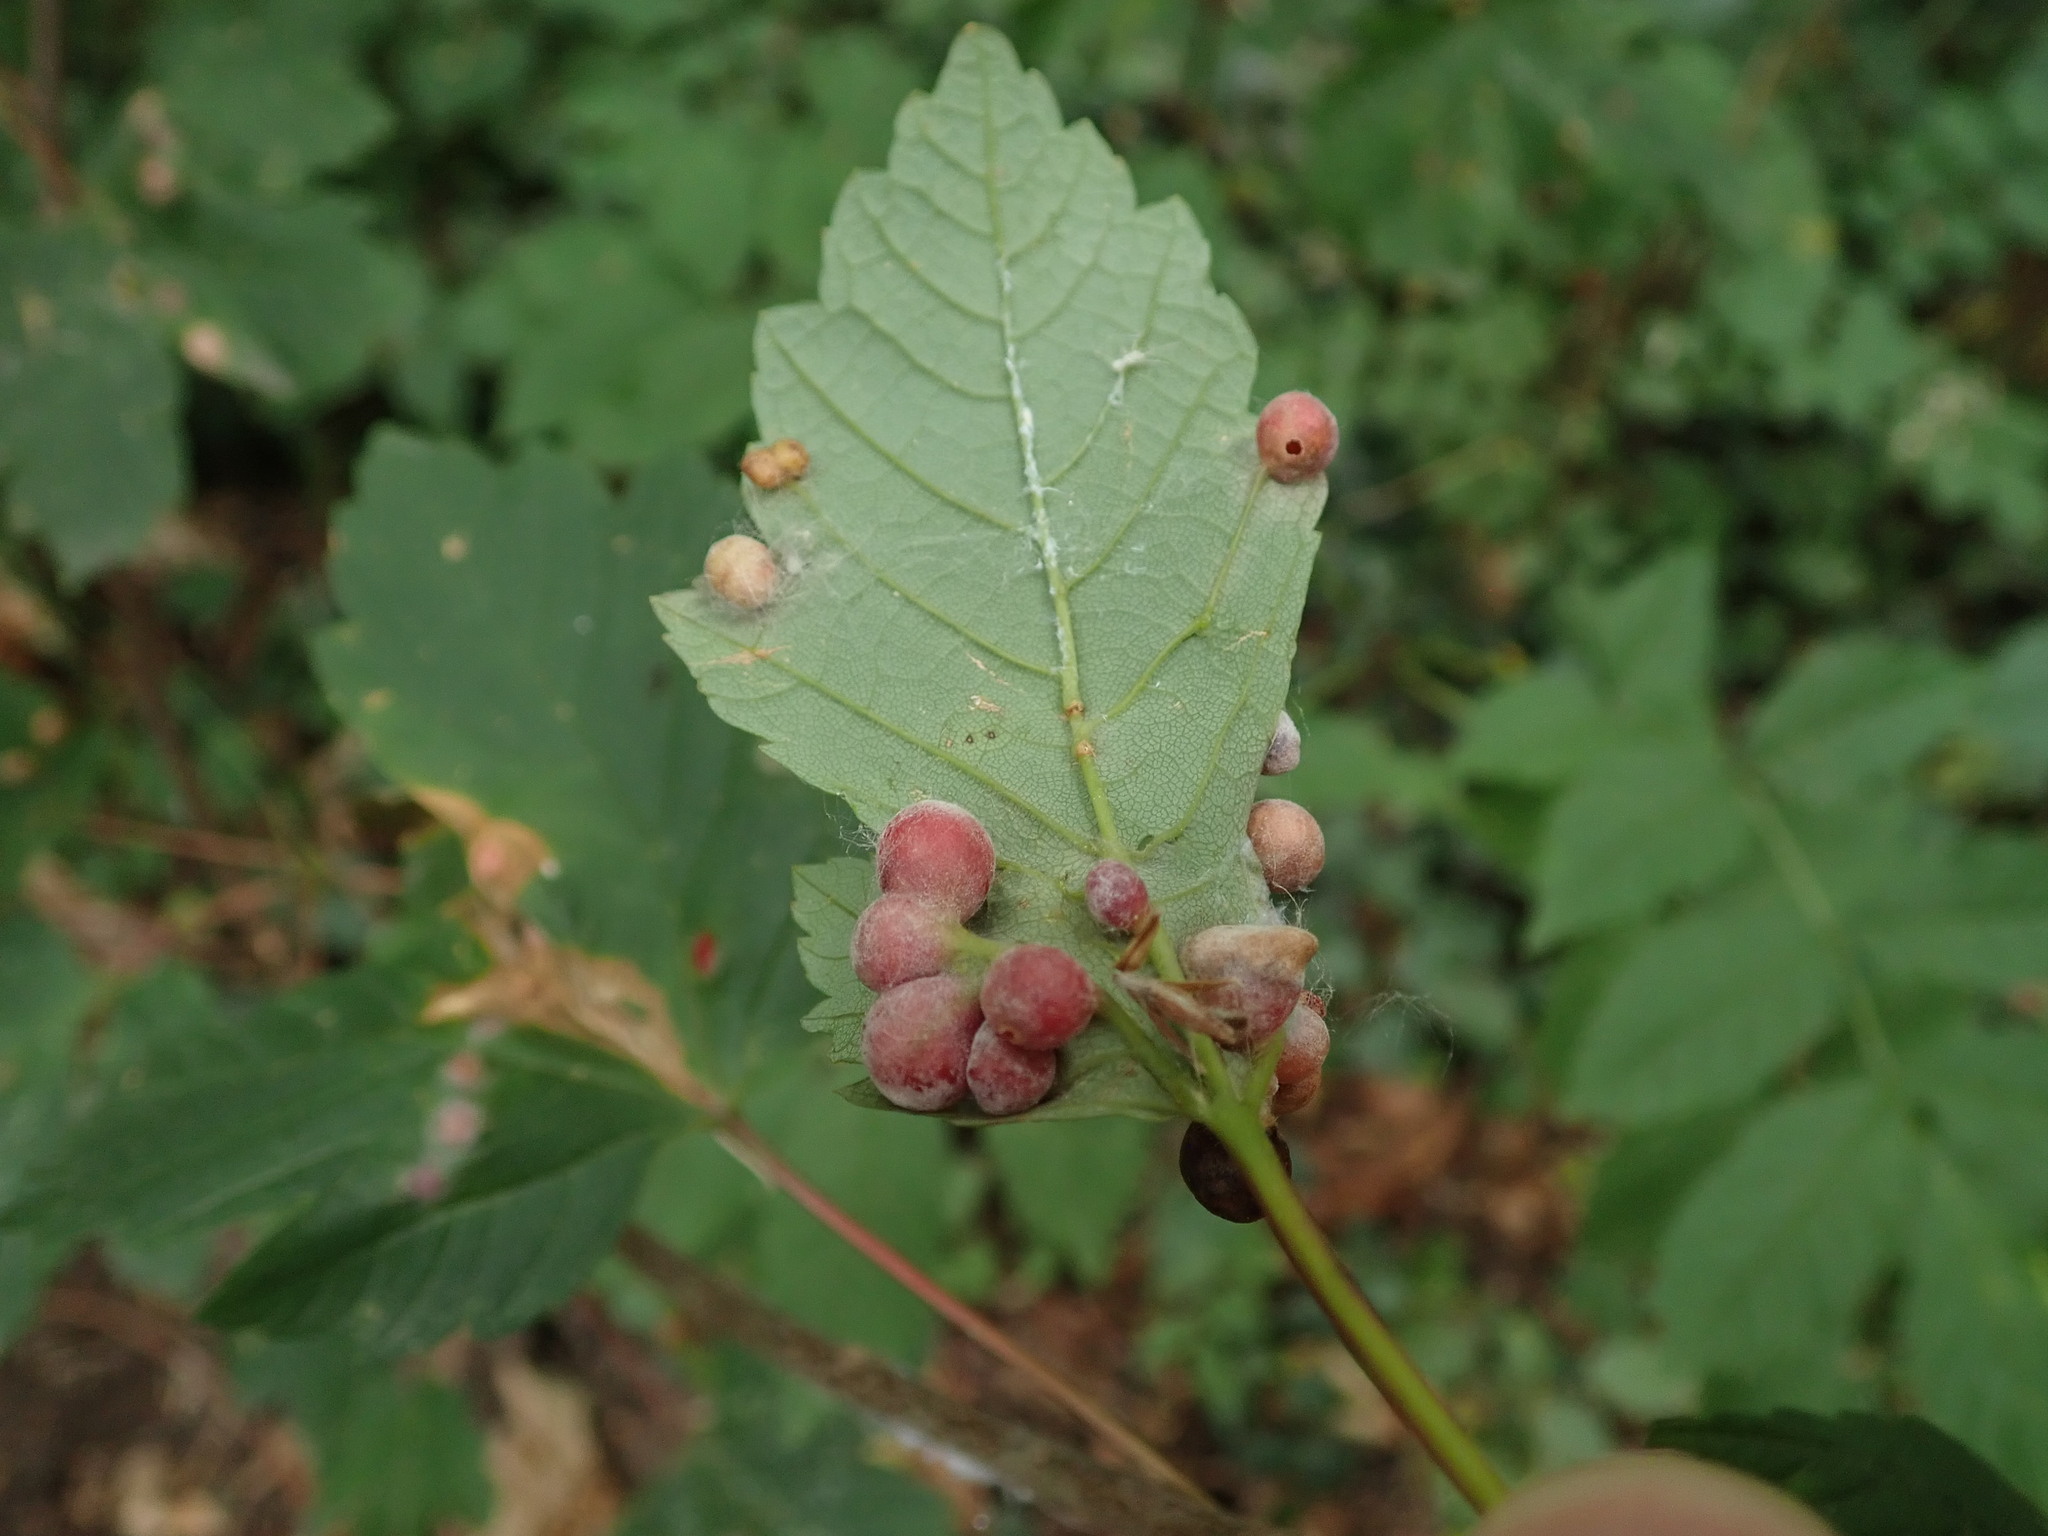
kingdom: Animalia
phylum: Arthropoda
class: Insecta
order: Hymenoptera
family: Cynipidae
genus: Pediaspis
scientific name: Pediaspis aceris
